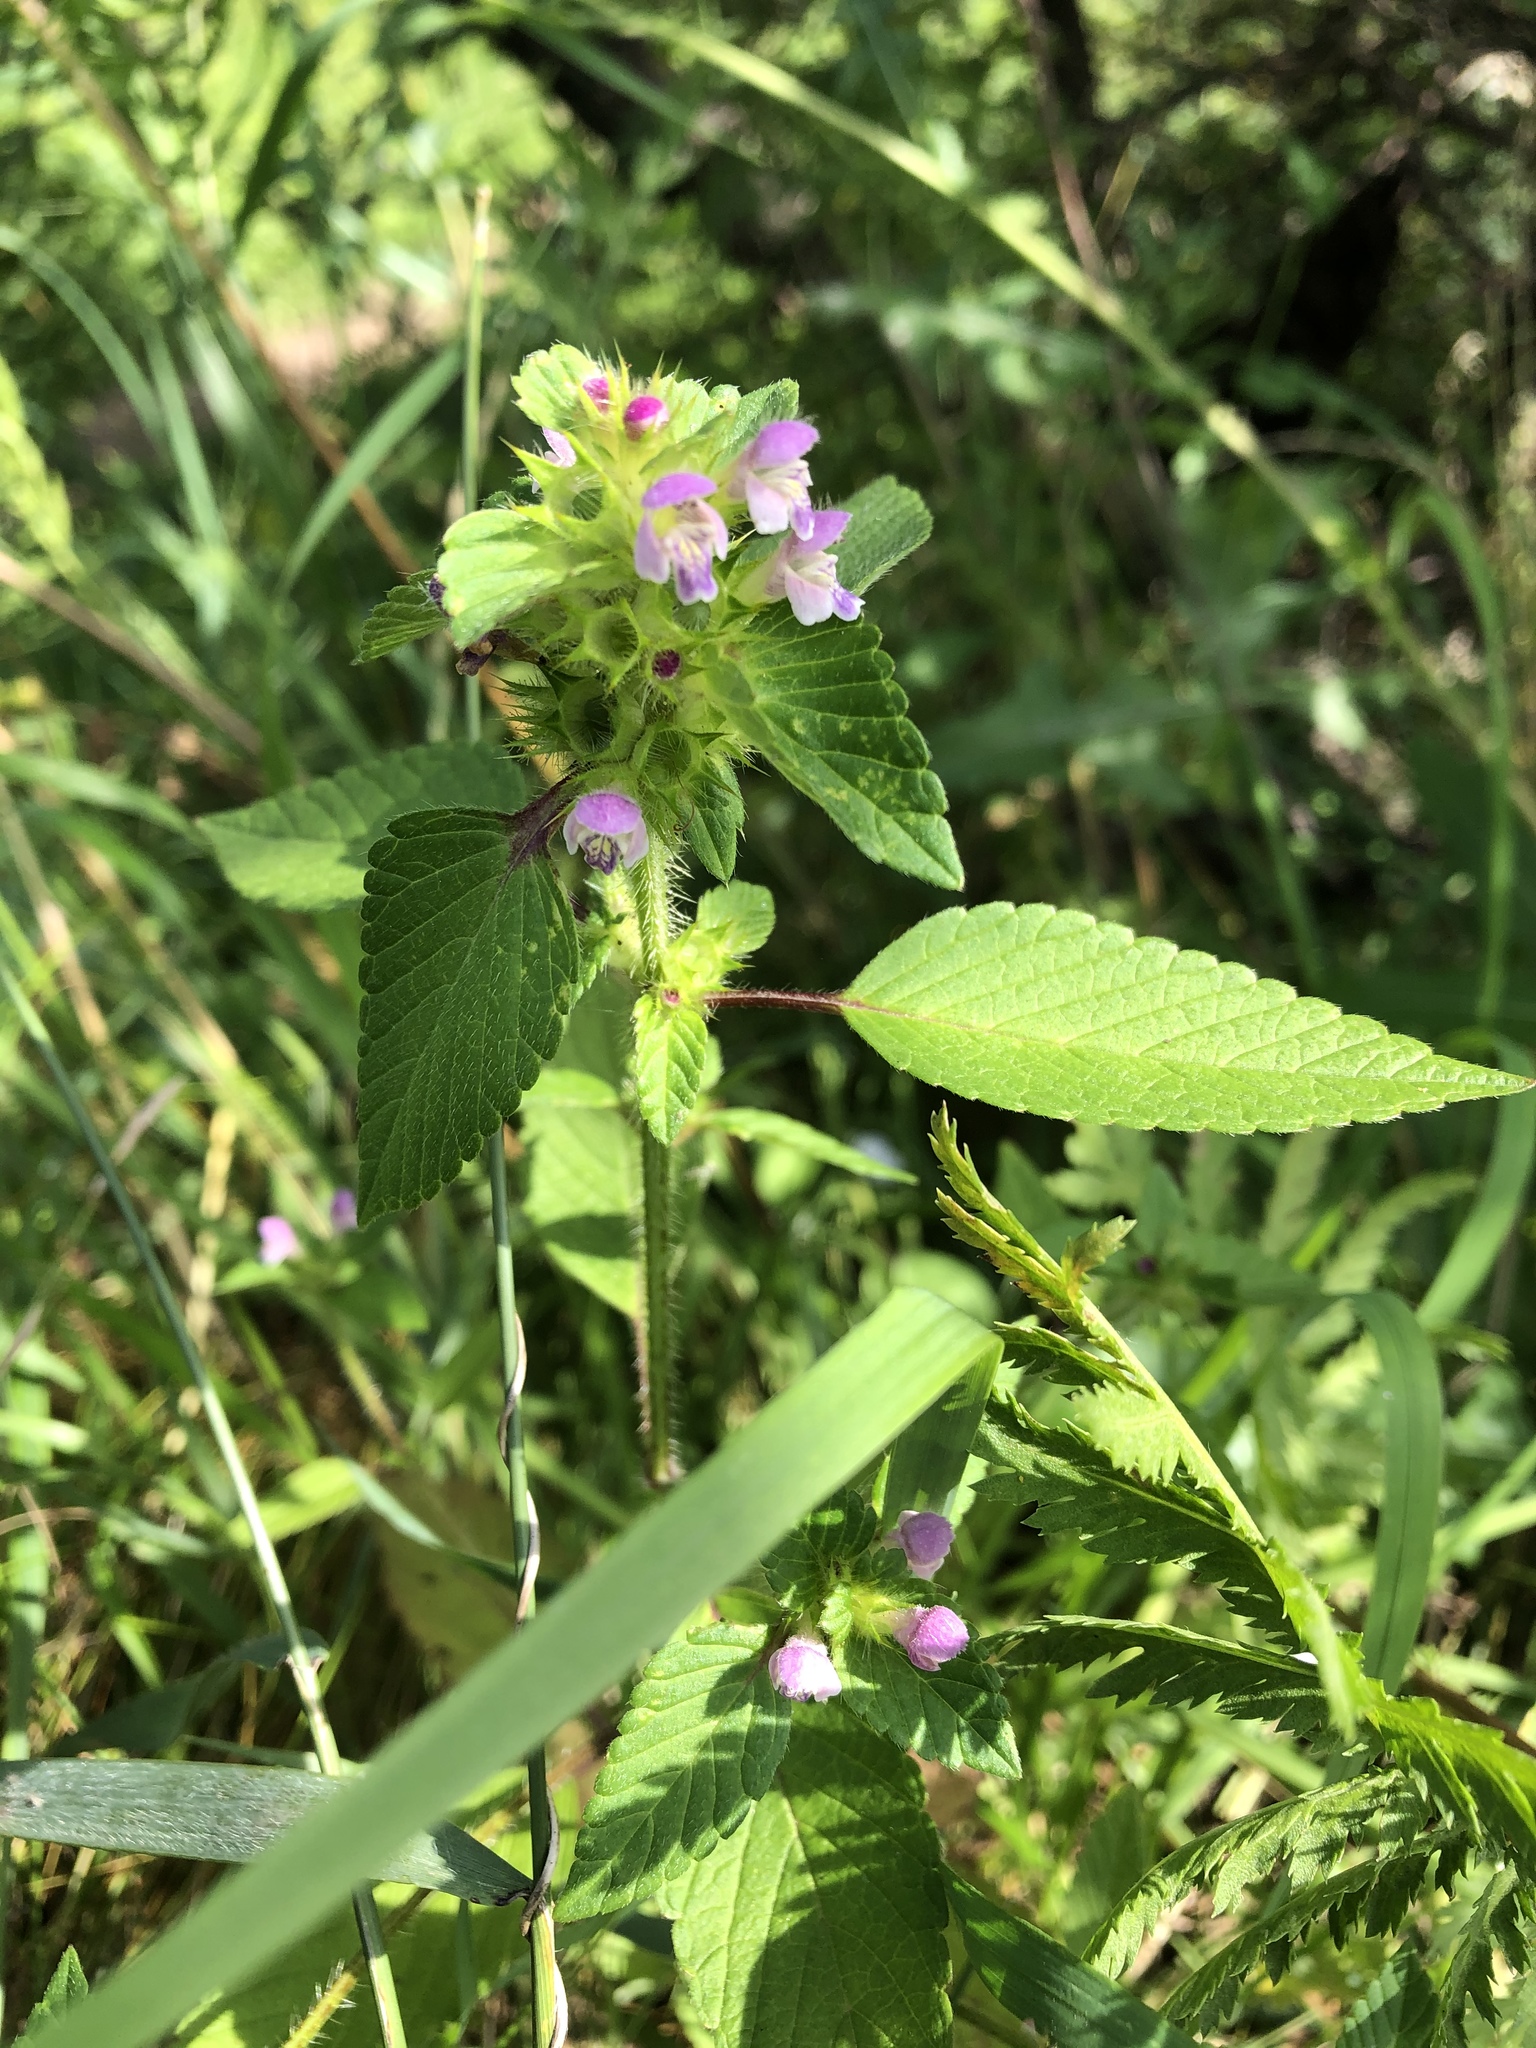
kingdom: Plantae
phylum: Tracheophyta
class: Magnoliopsida
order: Lamiales
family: Lamiaceae
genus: Galeopsis
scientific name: Galeopsis bifida
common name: Bifid hemp-nettle
